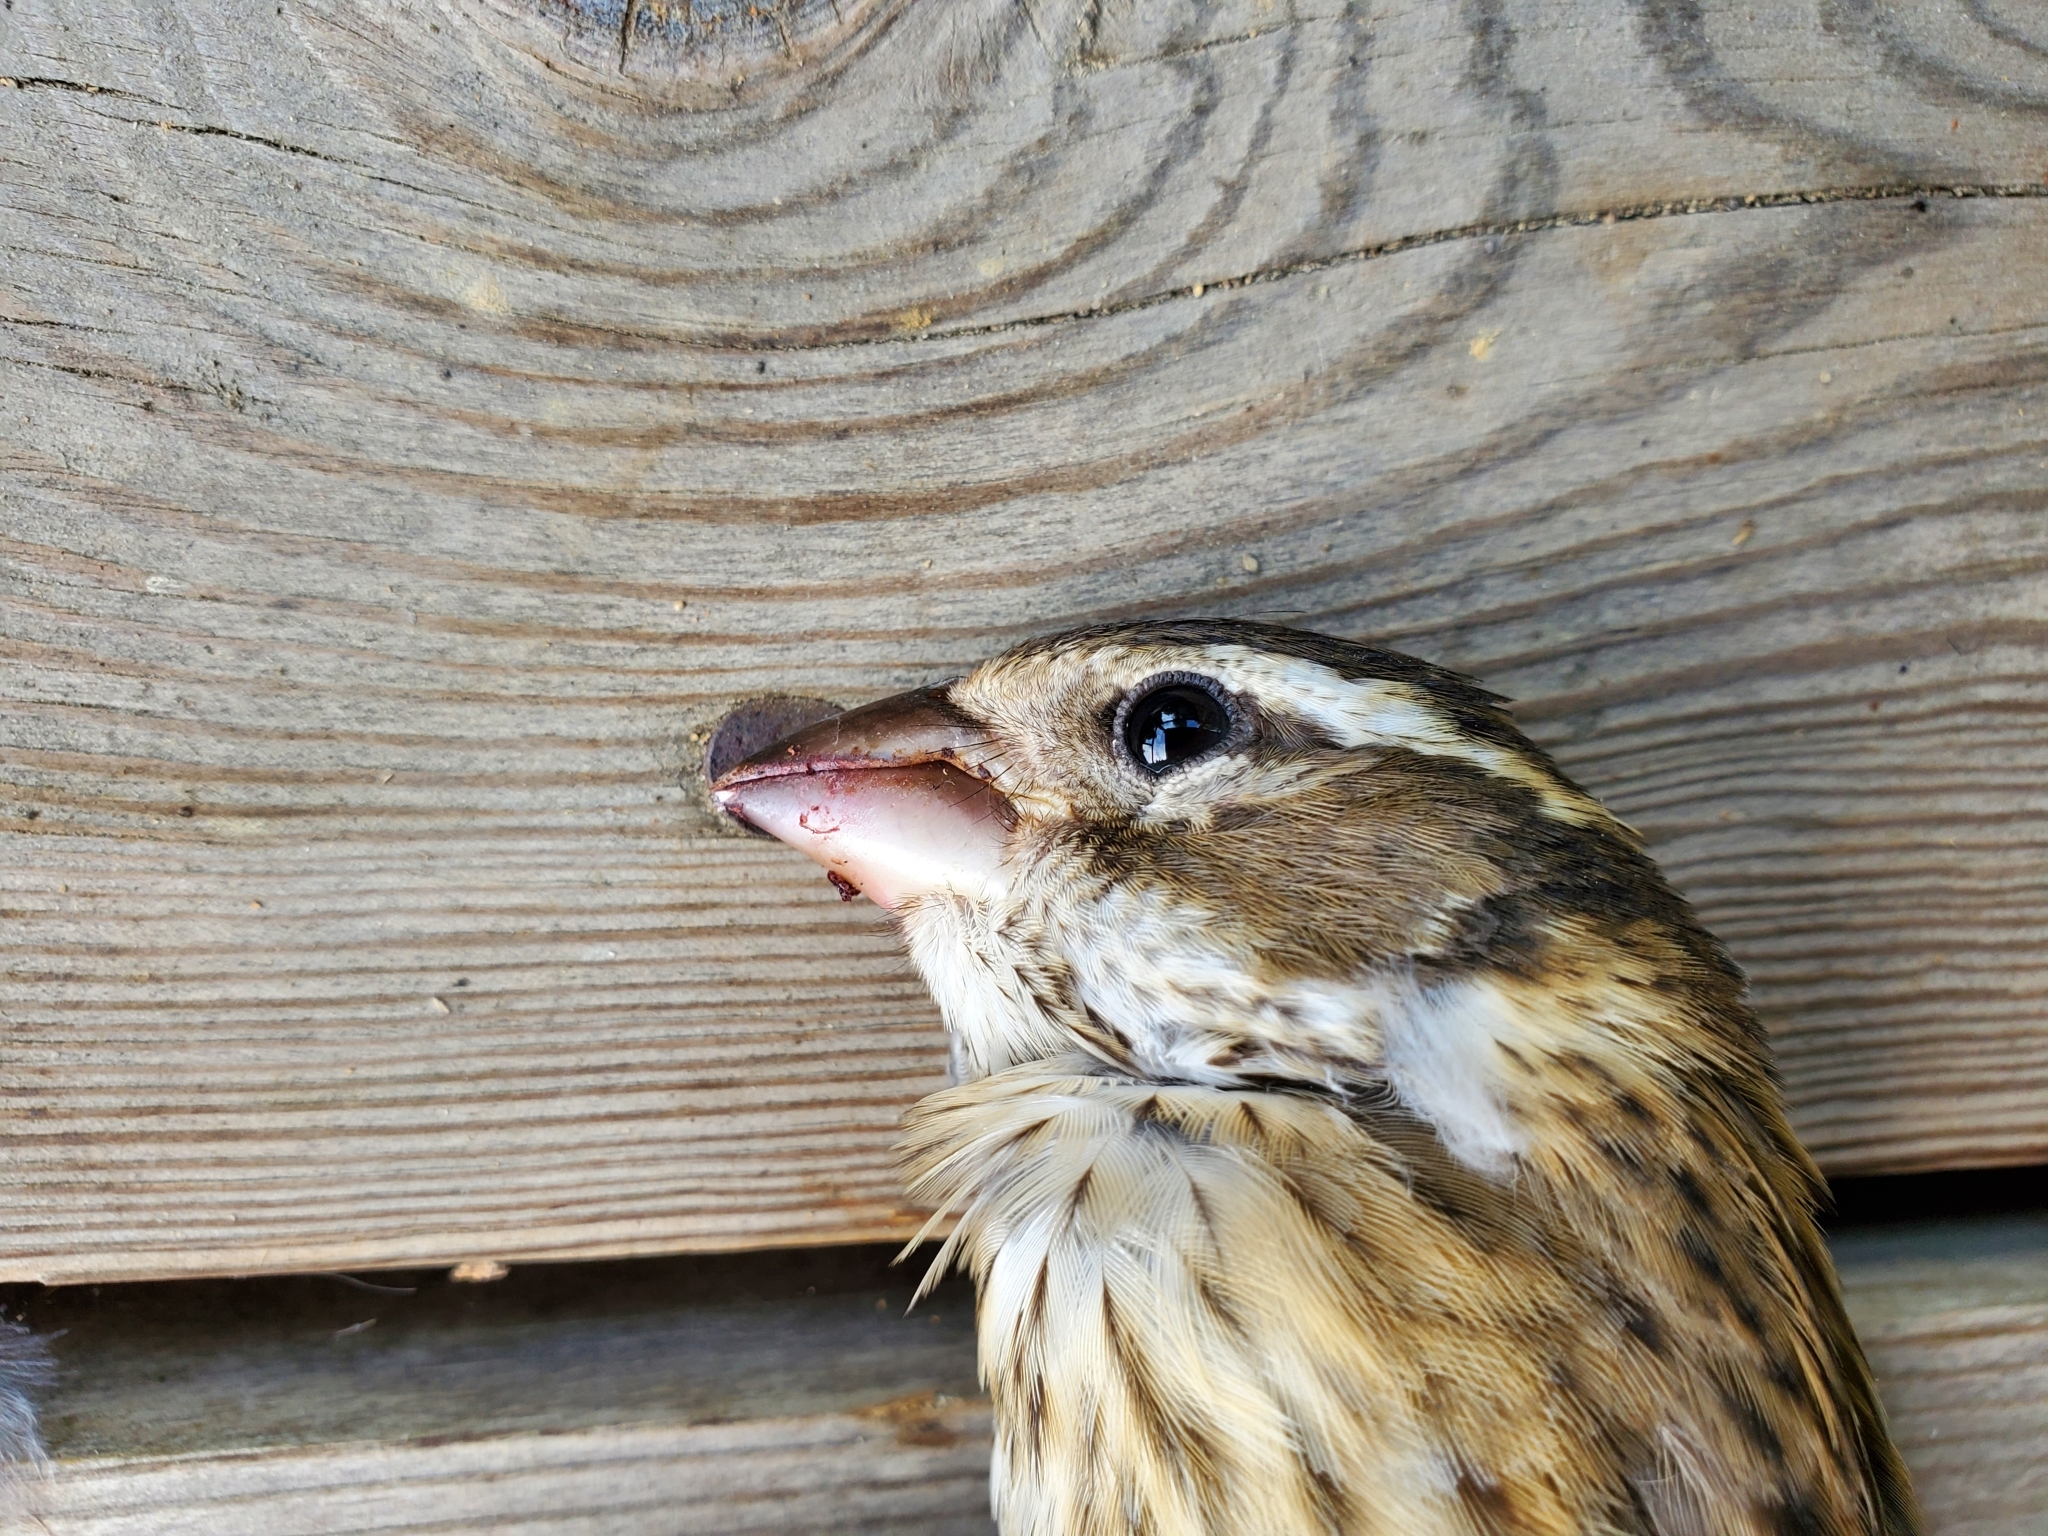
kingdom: Animalia
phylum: Chordata
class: Aves
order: Passeriformes
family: Cardinalidae
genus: Pheucticus
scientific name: Pheucticus ludovicianus
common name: Rose-breasted grosbeak
